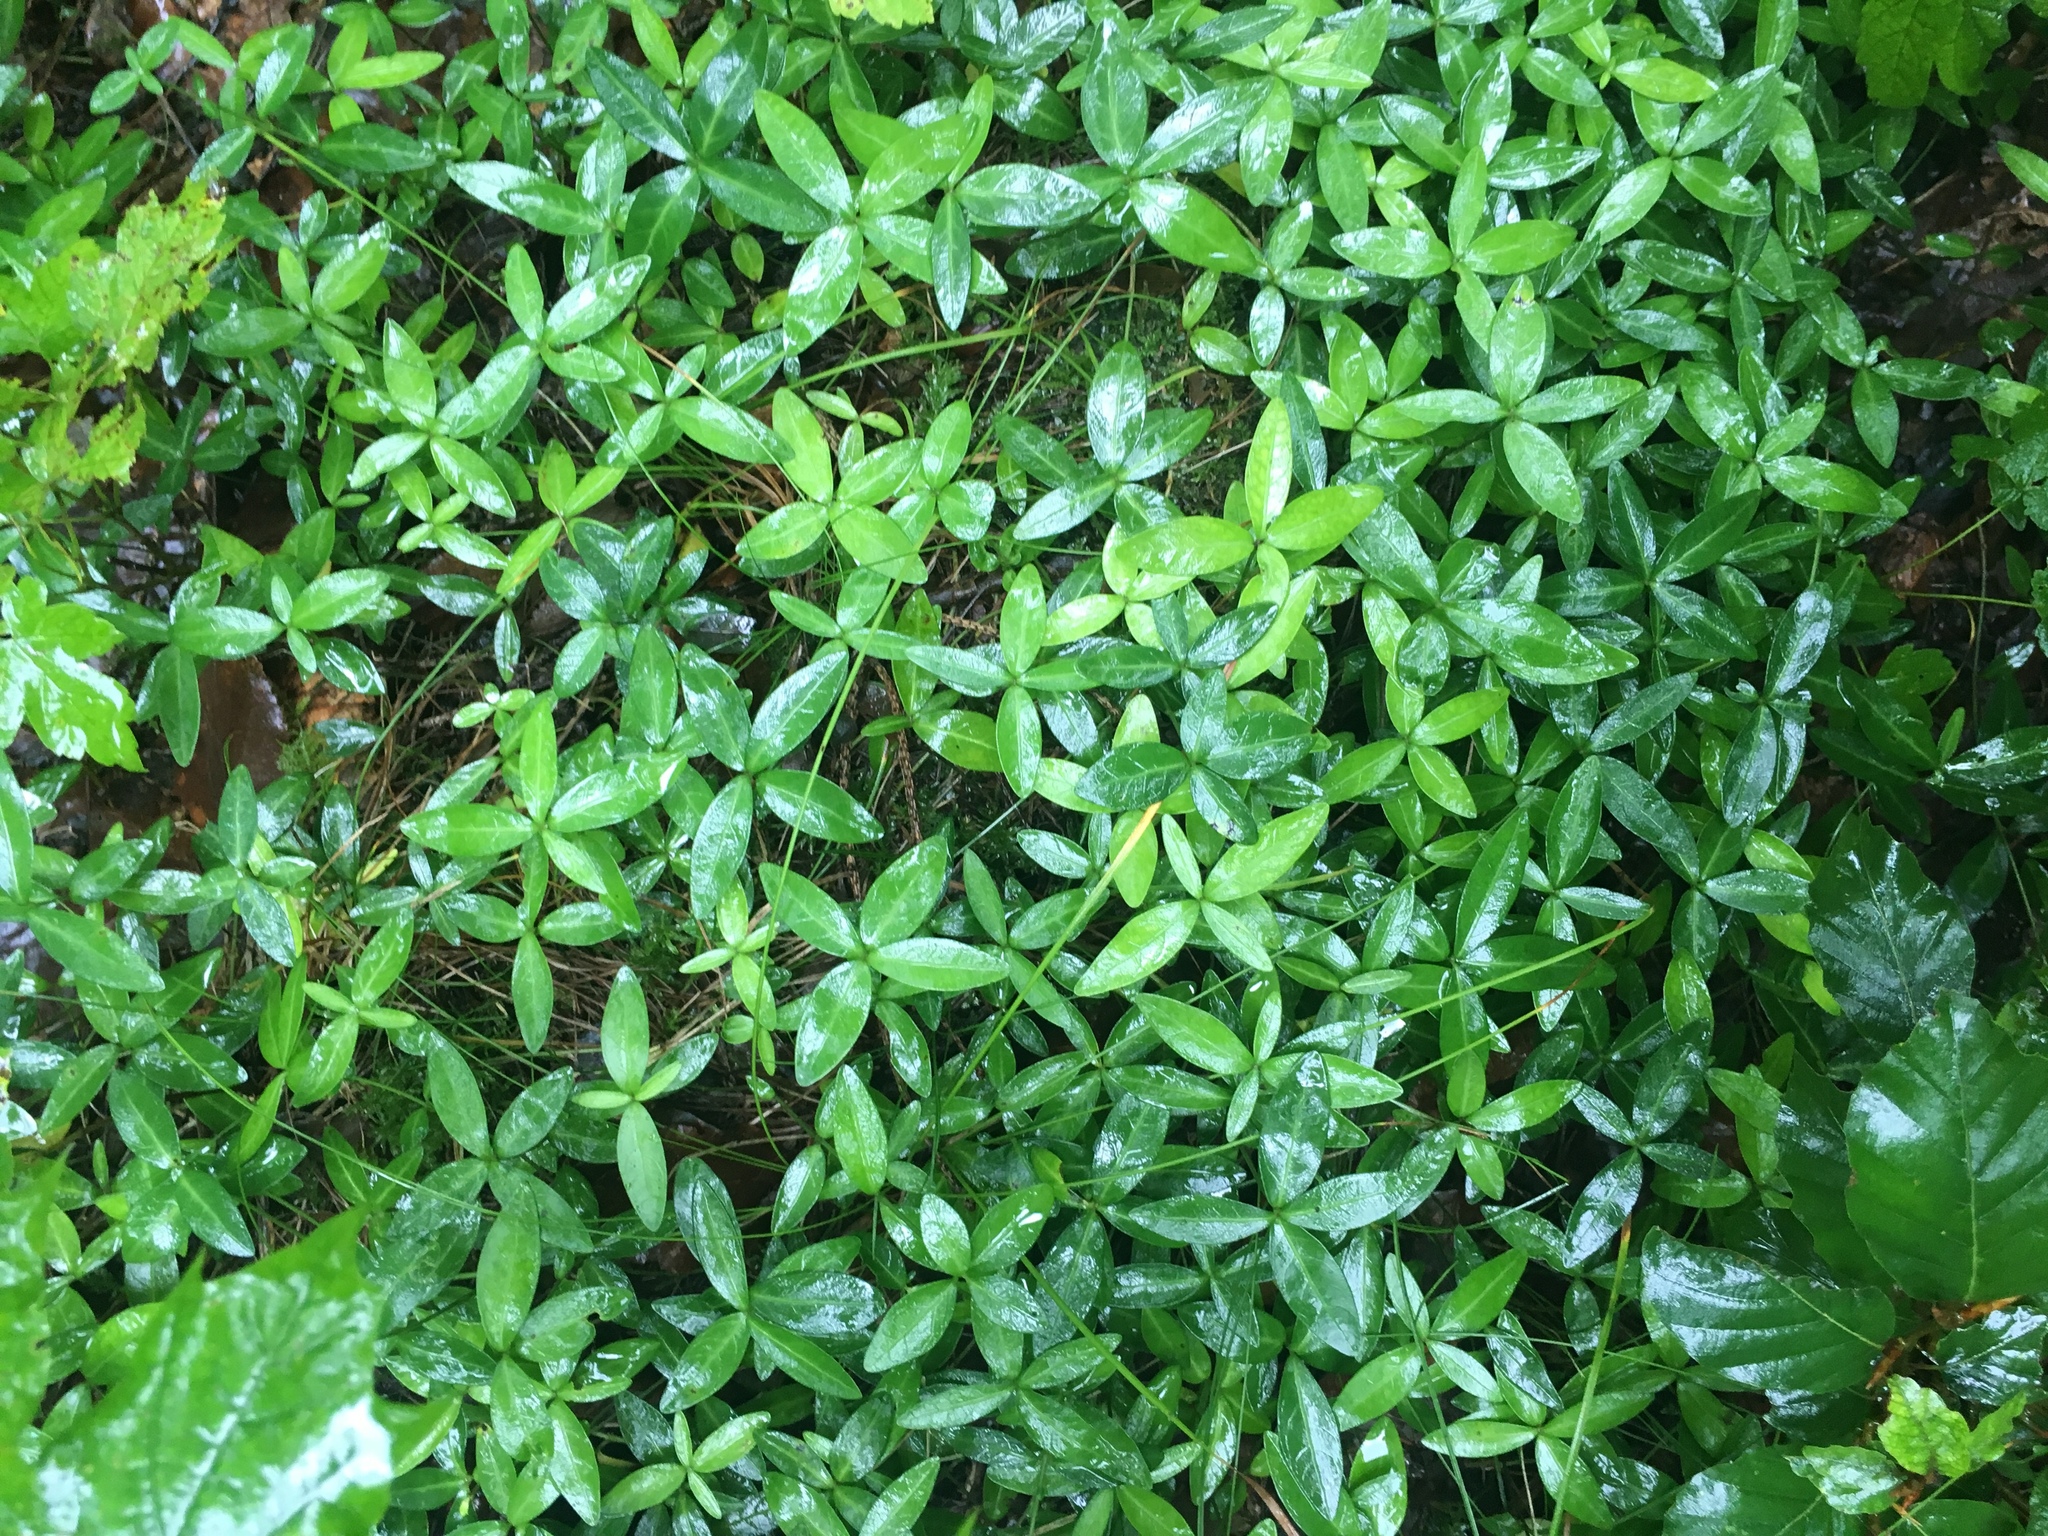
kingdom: Plantae
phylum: Tracheophyta
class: Magnoliopsida
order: Gentianales
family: Apocynaceae
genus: Vinca
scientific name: Vinca minor
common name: Lesser periwinkle
